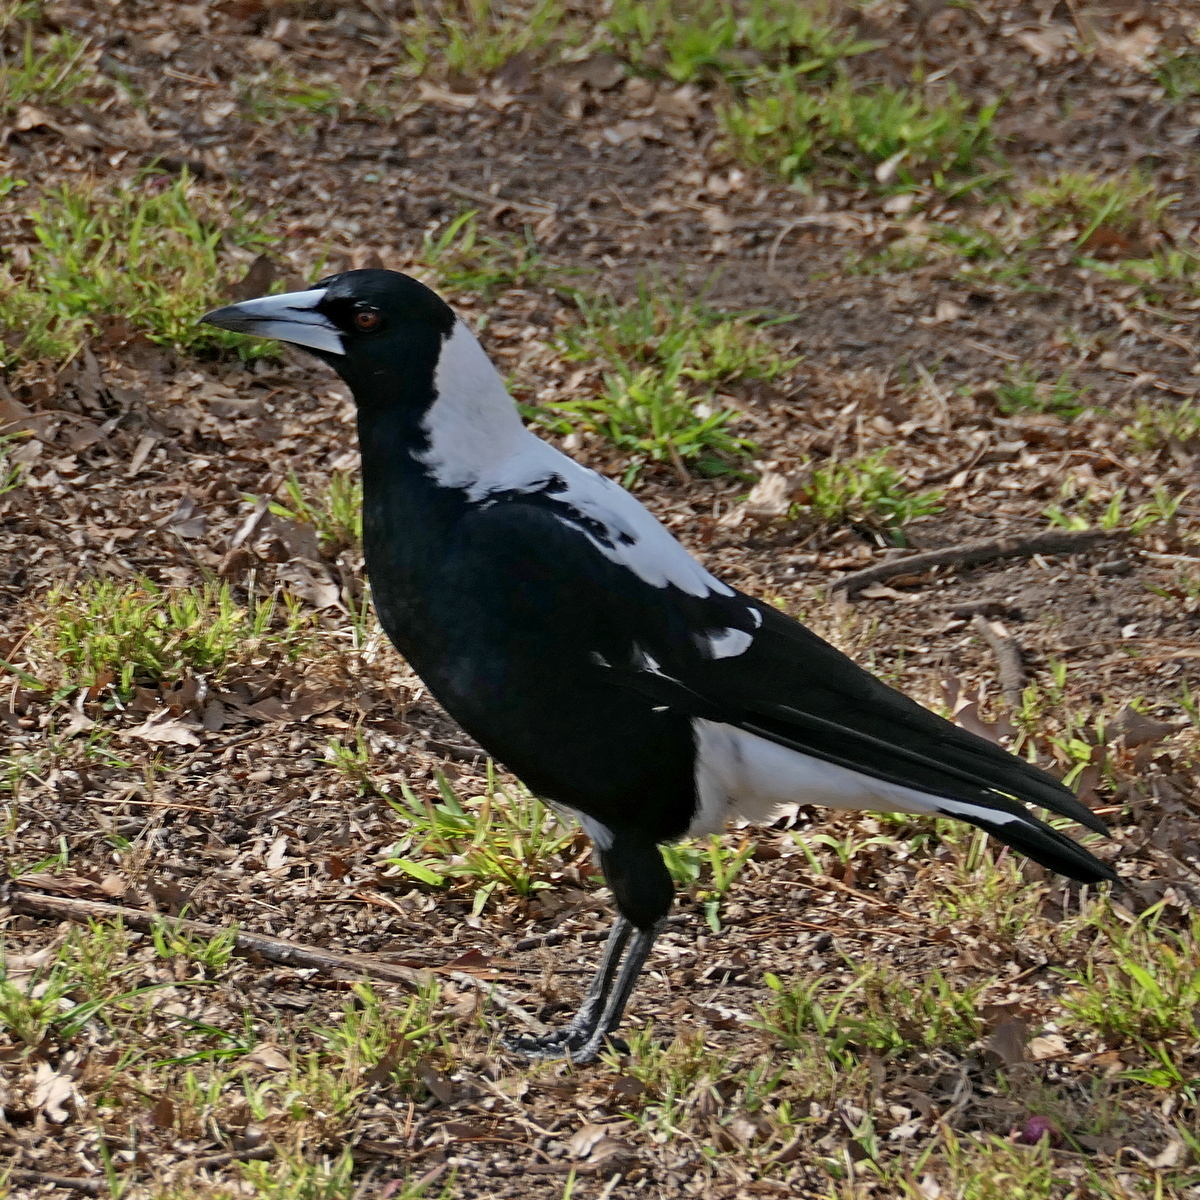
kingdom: Animalia
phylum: Chordata
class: Aves
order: Passeriformes
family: Cracticidae
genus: Gymnorhina
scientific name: Gymnorhina tibicen
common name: Australian magpie
